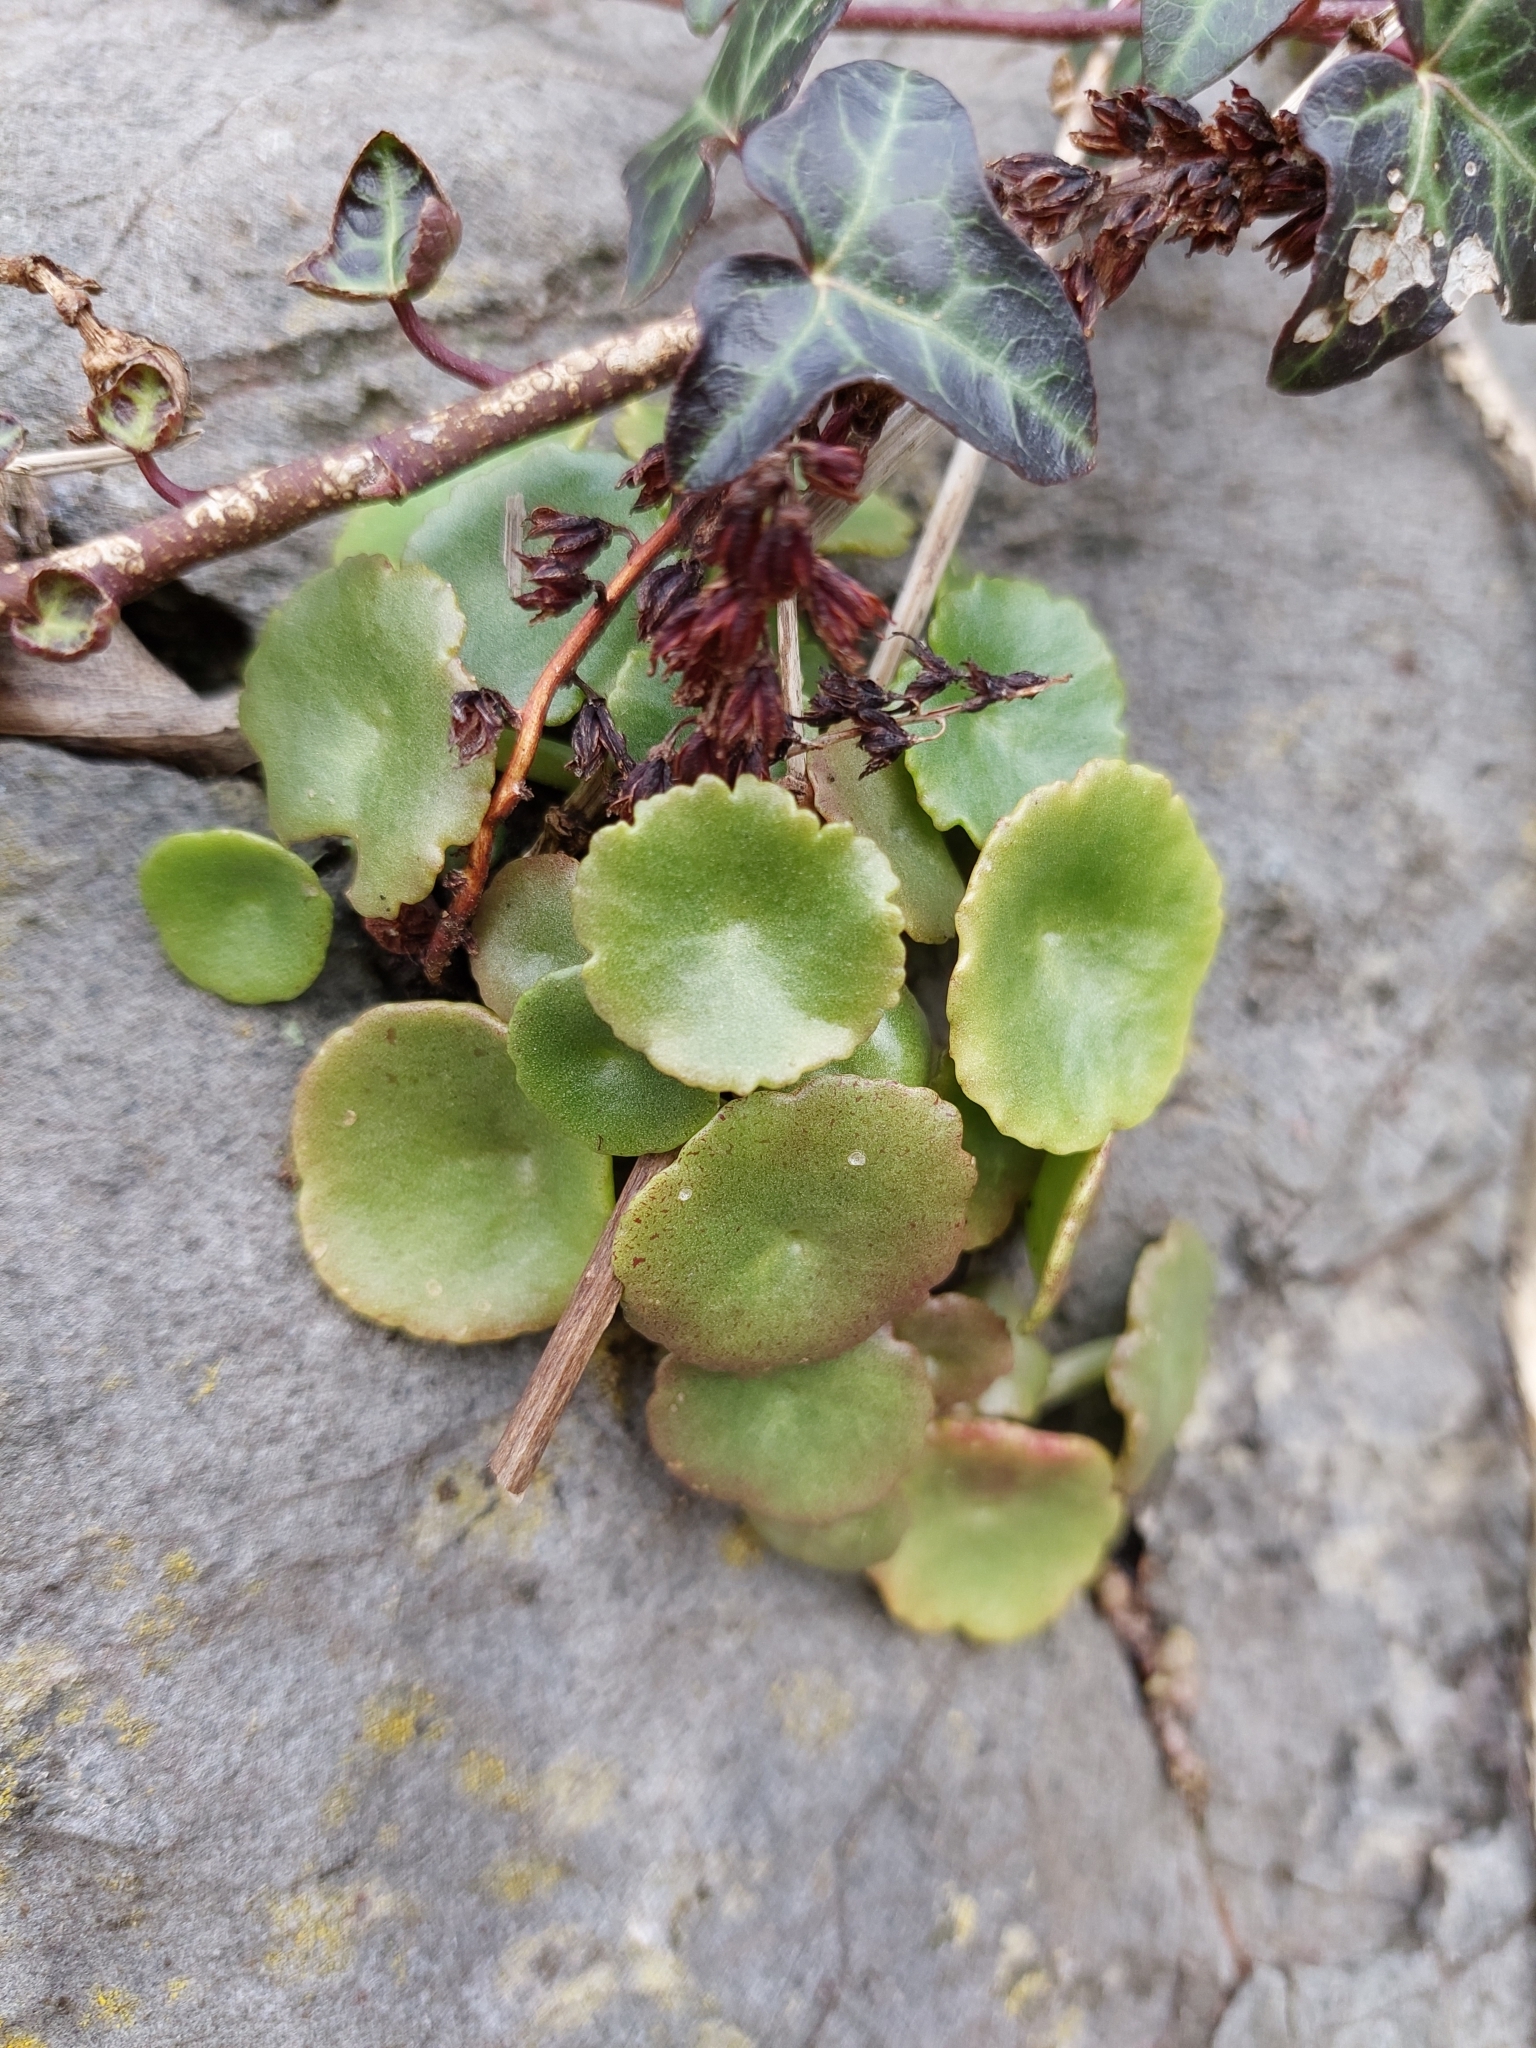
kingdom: Plantae
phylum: Tracheophyta
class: Magnoliopsida
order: Saxifragales
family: Crassulaceae
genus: Umbilicus
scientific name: Umbilicus rupestris
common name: Navelwort
